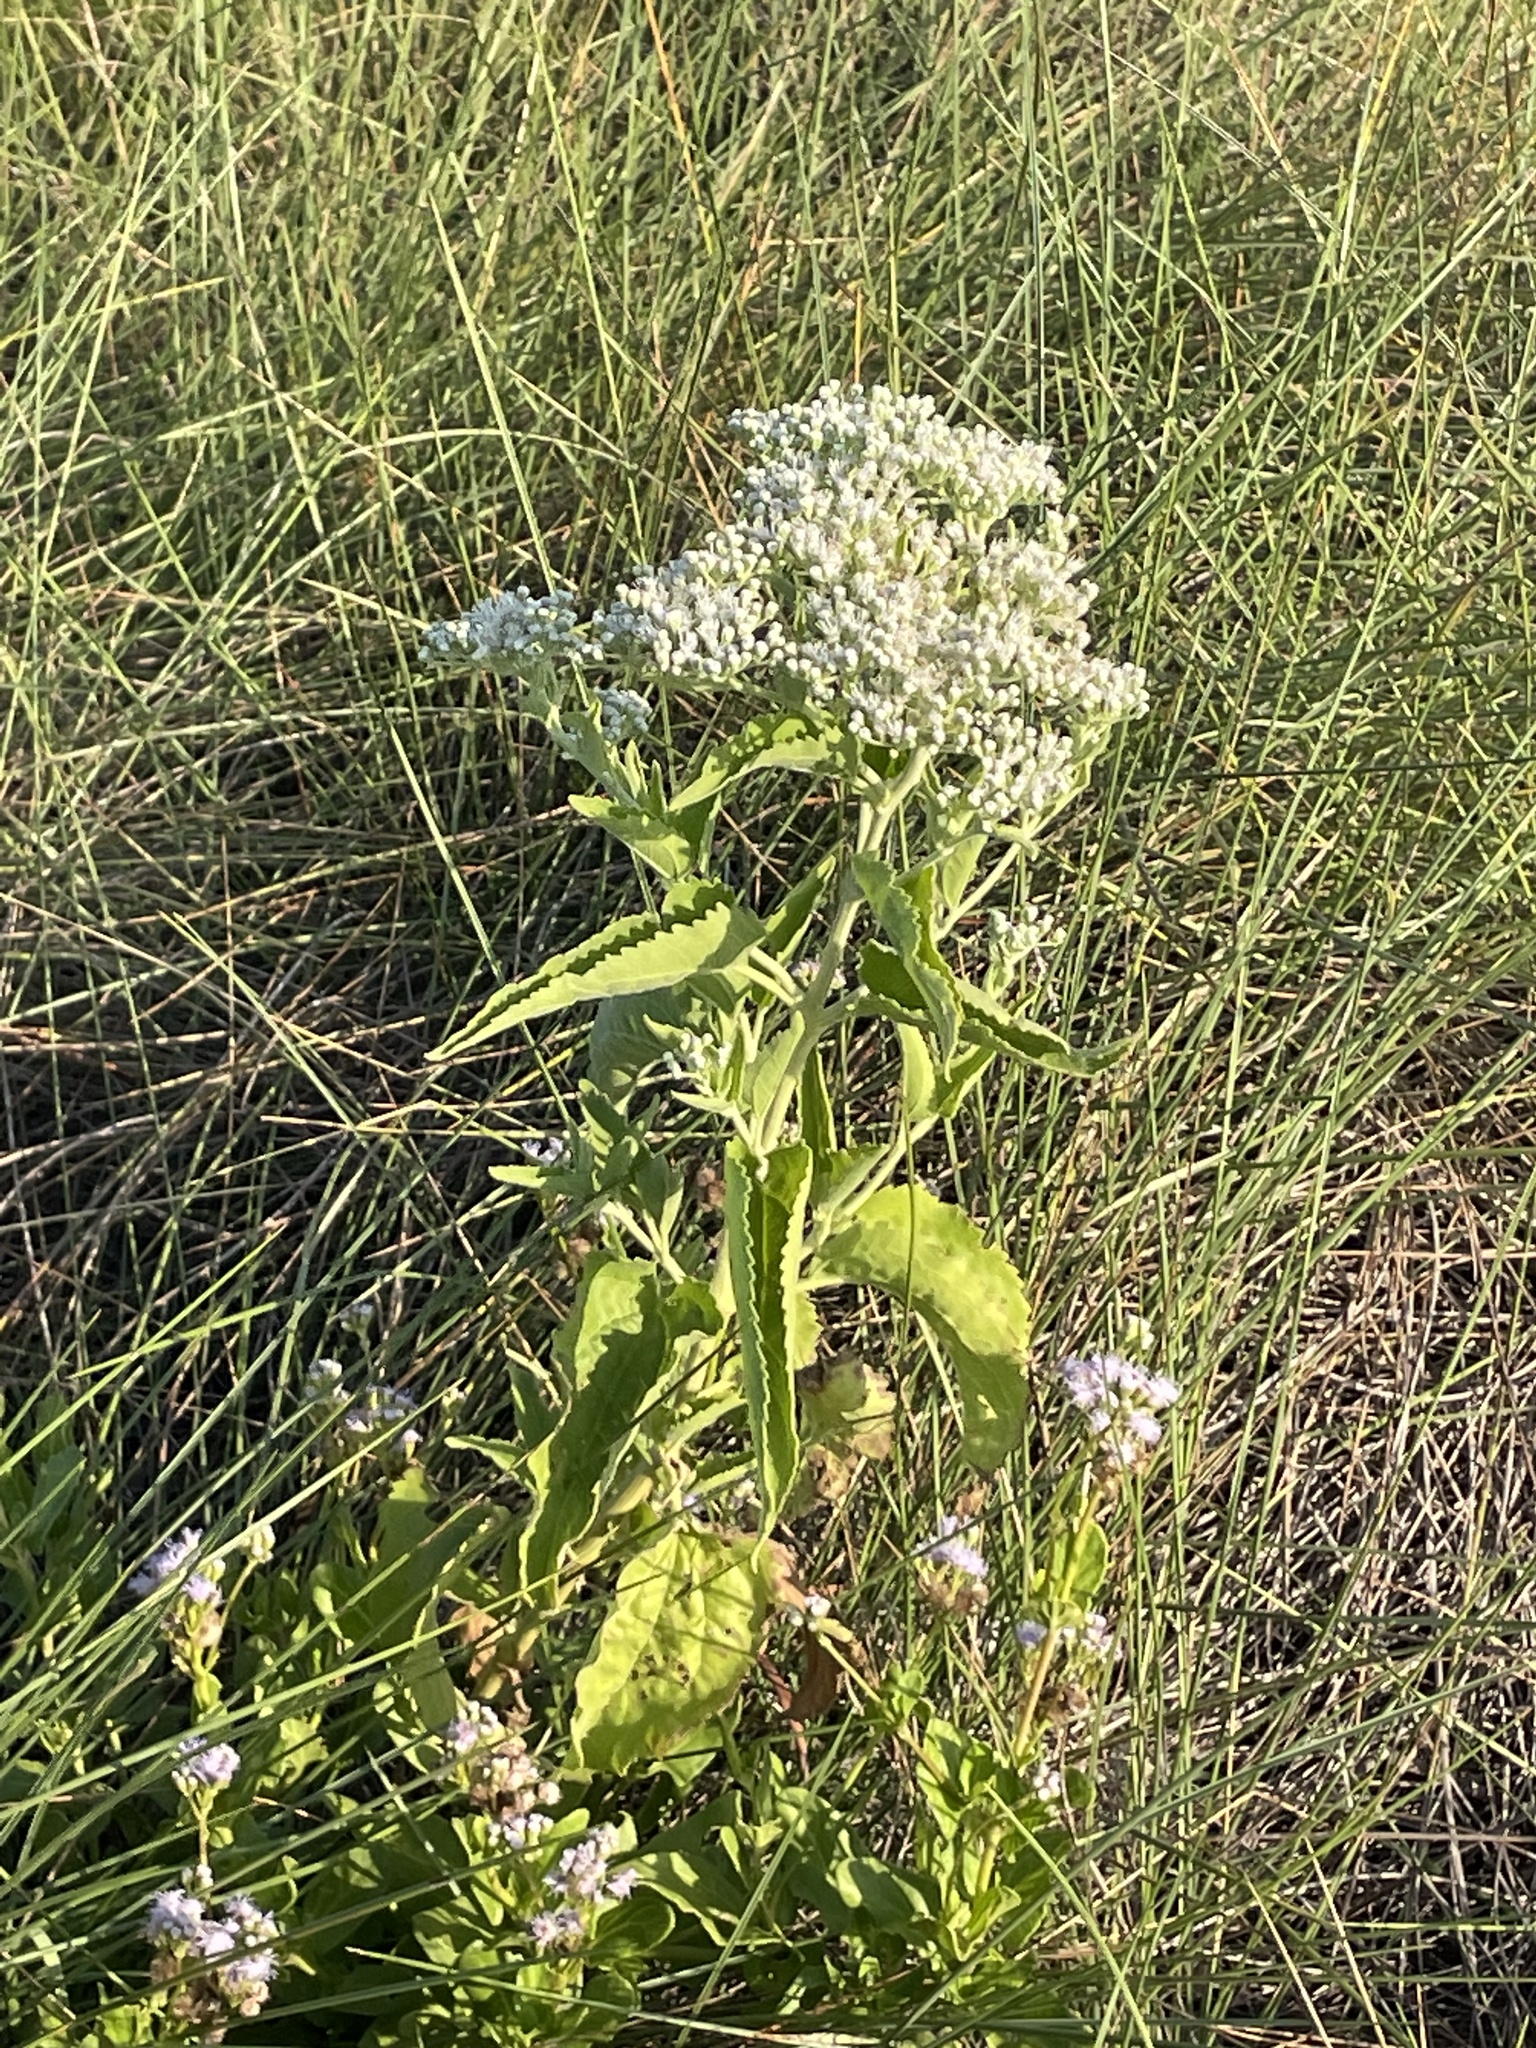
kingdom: Plantae
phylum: Tracheophyta
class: Magnoliopsida
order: Asterales
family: Asteraceae
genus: Eupatorium
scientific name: Eupatorium serotinum
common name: Late boneset
